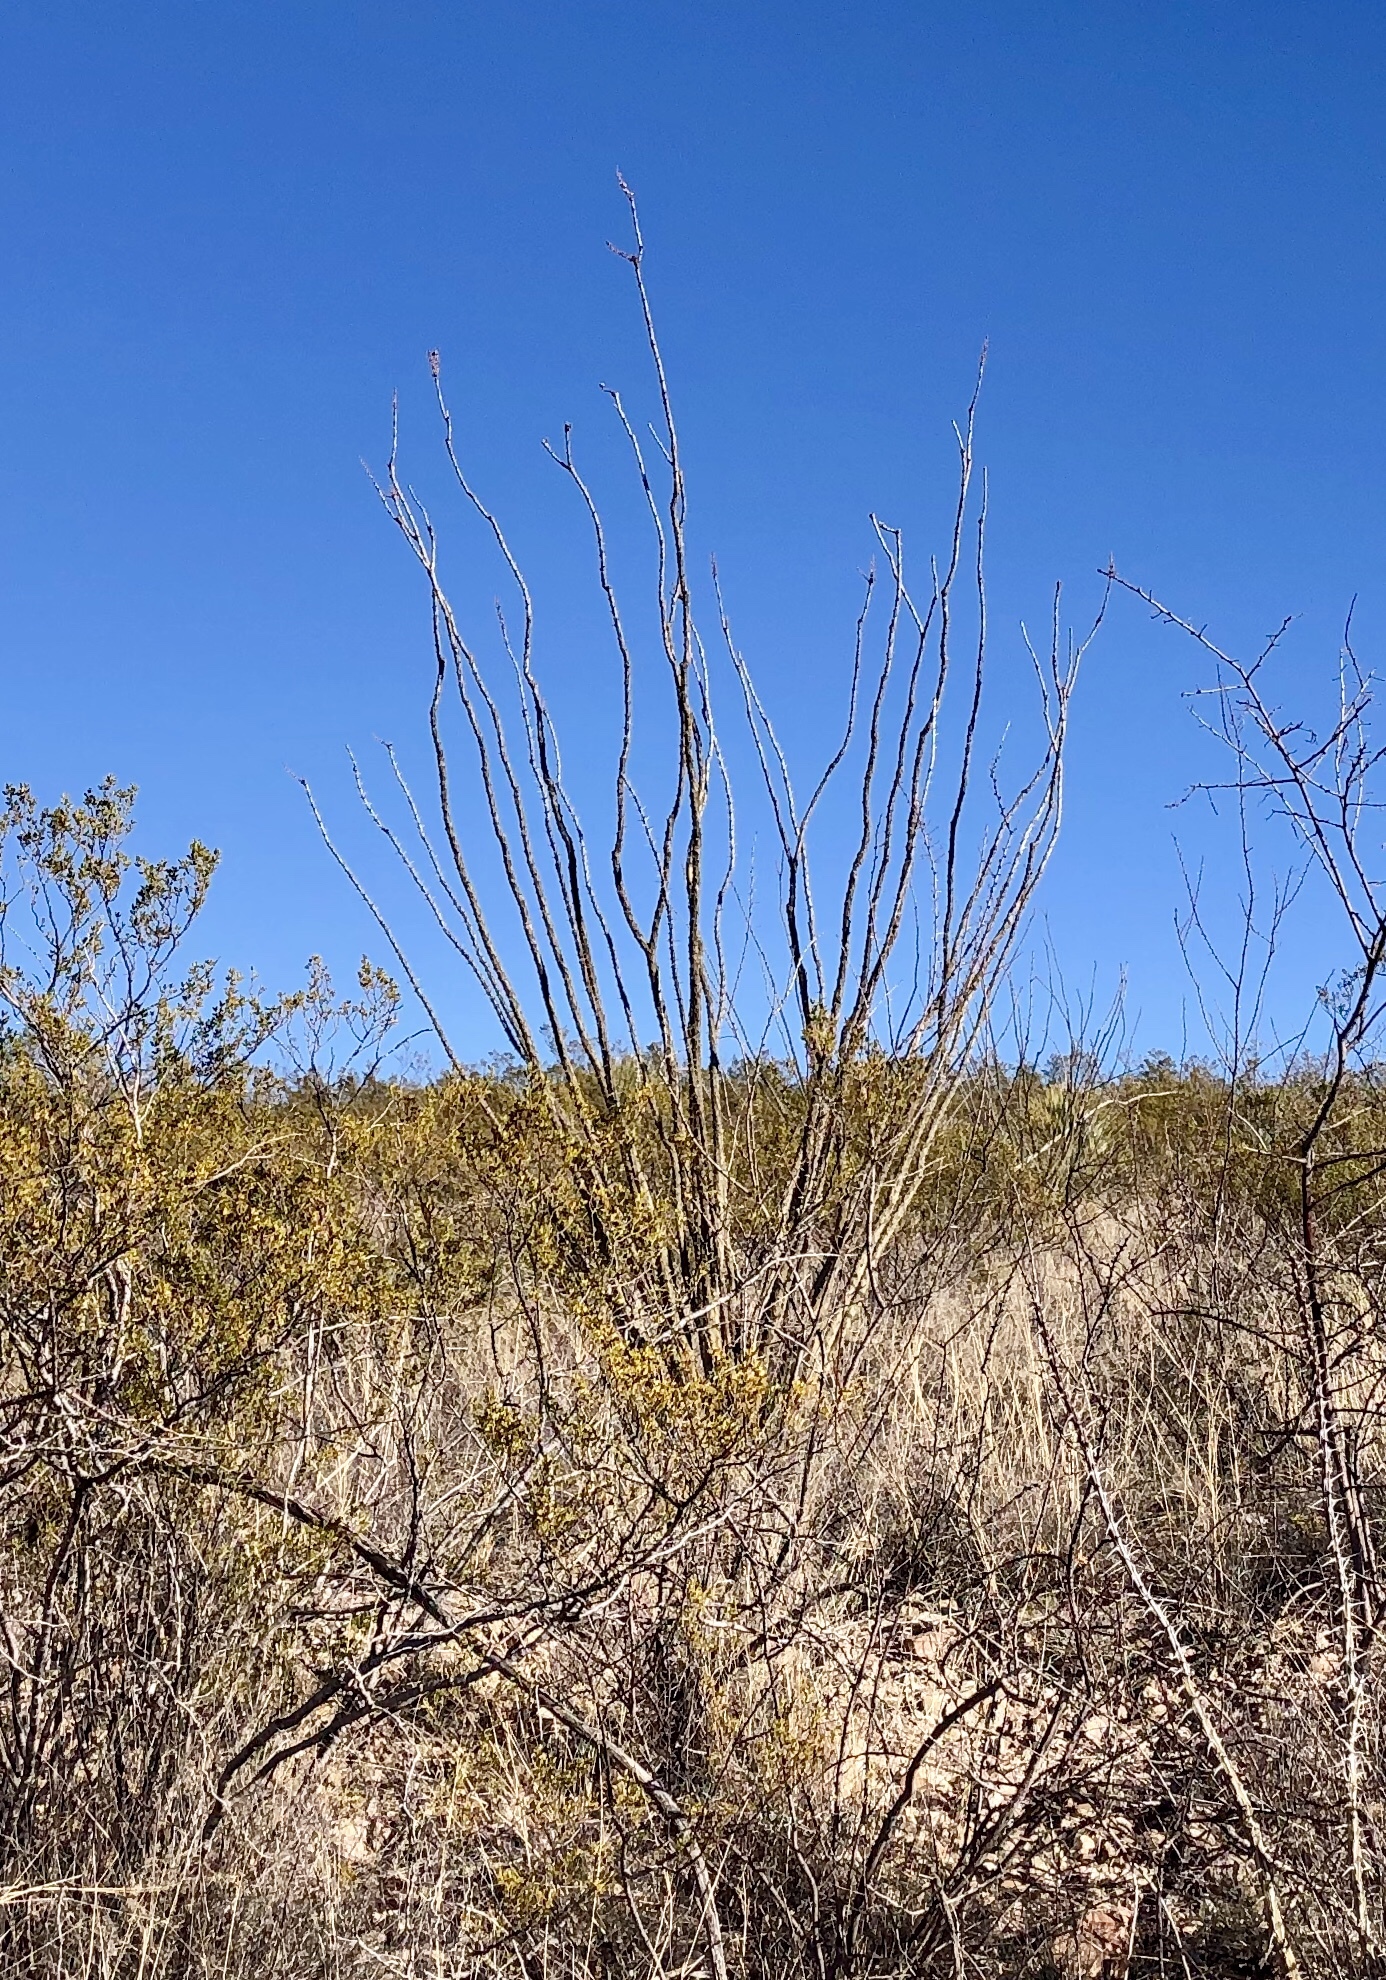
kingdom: Plantae
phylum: Tracheophyta
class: Magnoliopsida
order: Ericales
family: Fouquieriaceae
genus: Fouquieria
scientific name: Fouquieria splendens
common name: Vine-cactus
